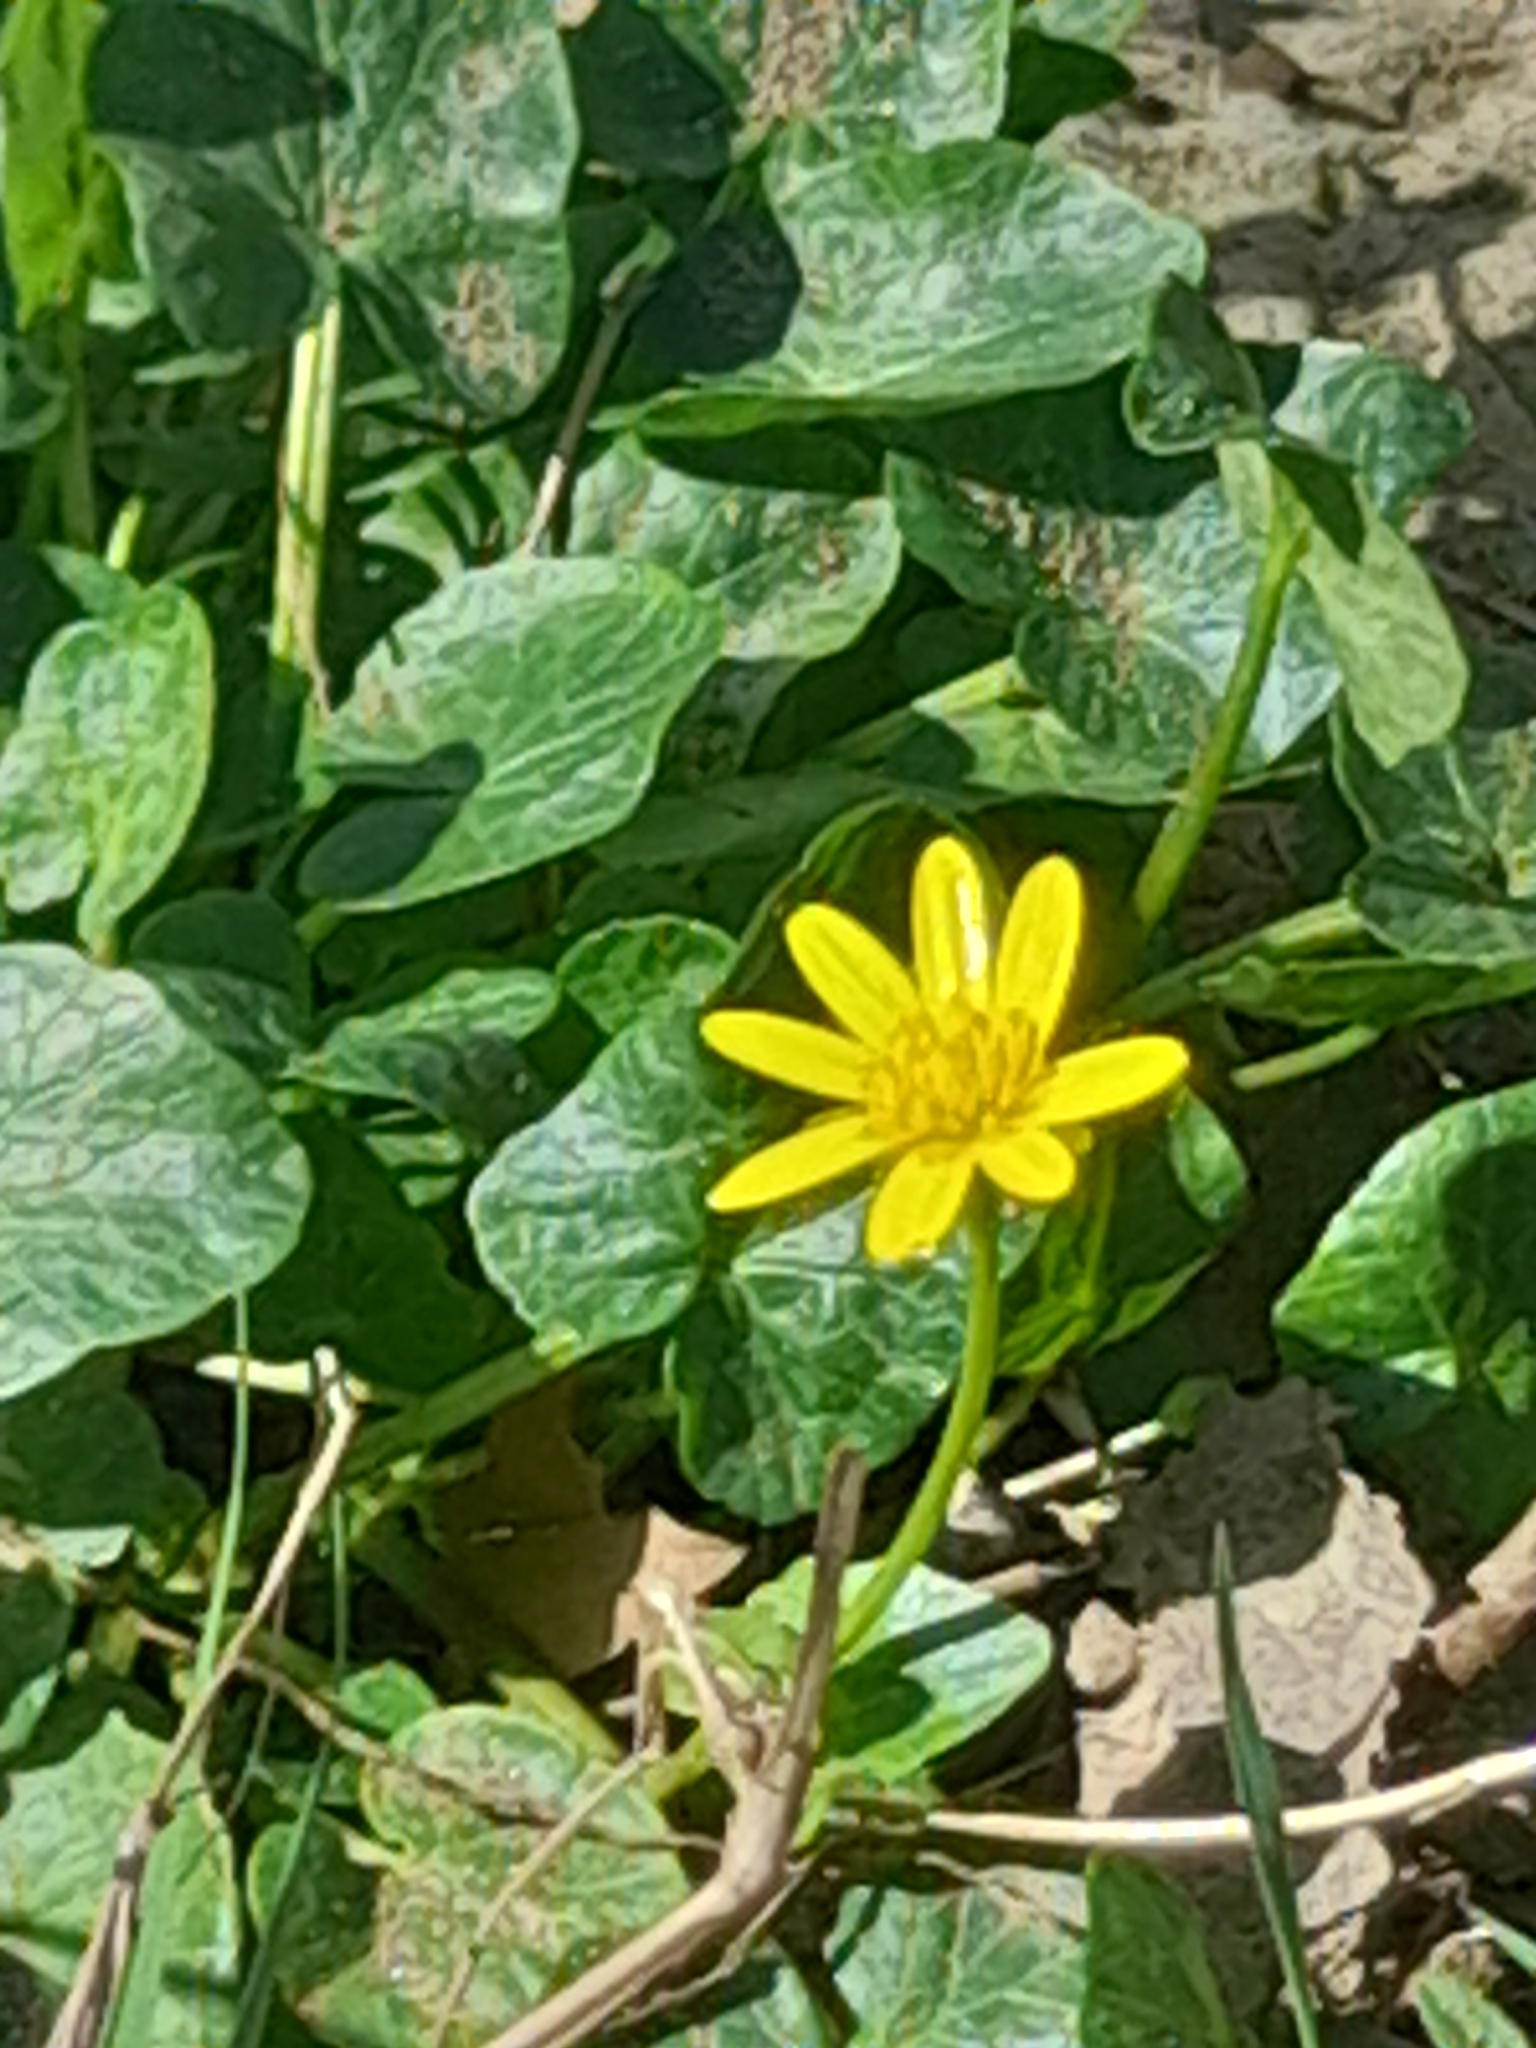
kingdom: Plantae
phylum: Tracheophyta
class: Magnoliopsida
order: Ranunculales
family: Ranunculaceae
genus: Ficaria
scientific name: Ficaria verna
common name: Lesser celandine
